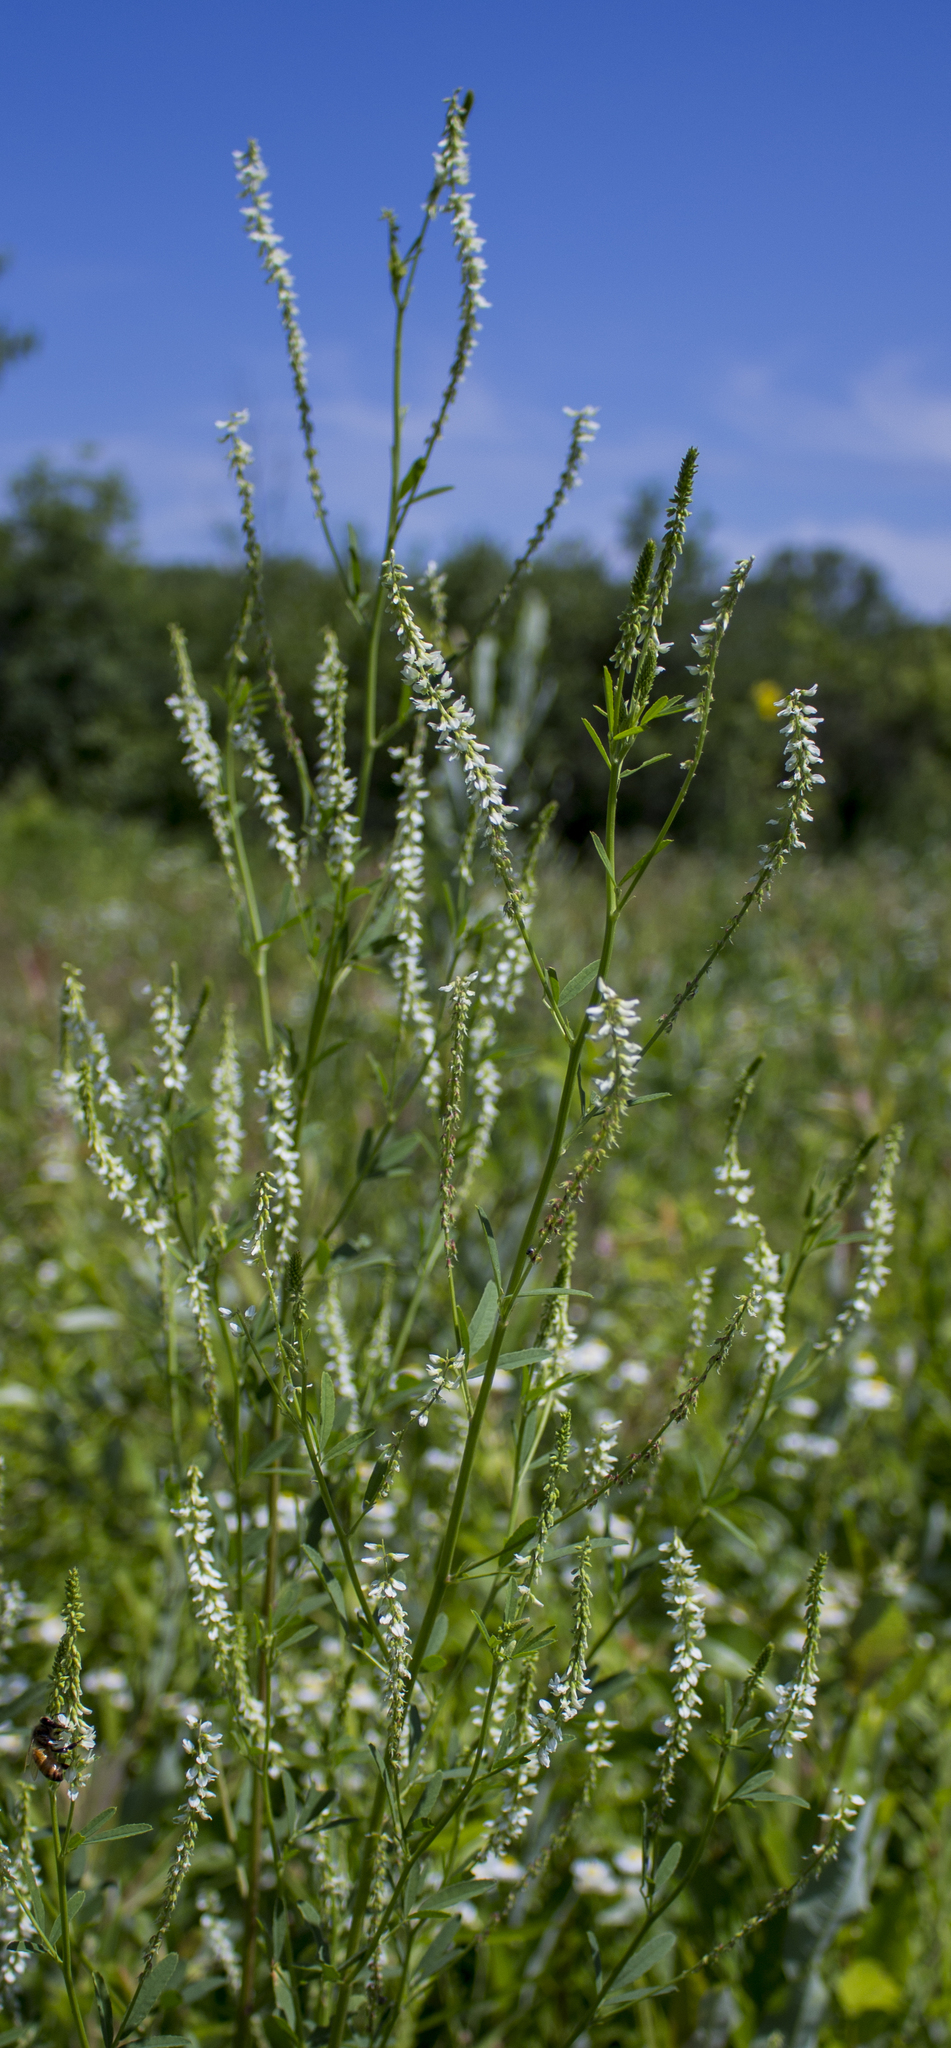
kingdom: Plantae
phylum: Tracheophyta
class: Magnoliopsida
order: Fabales
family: Fabaceae
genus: Melilotus
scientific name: Melilotus albus
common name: White melilot
